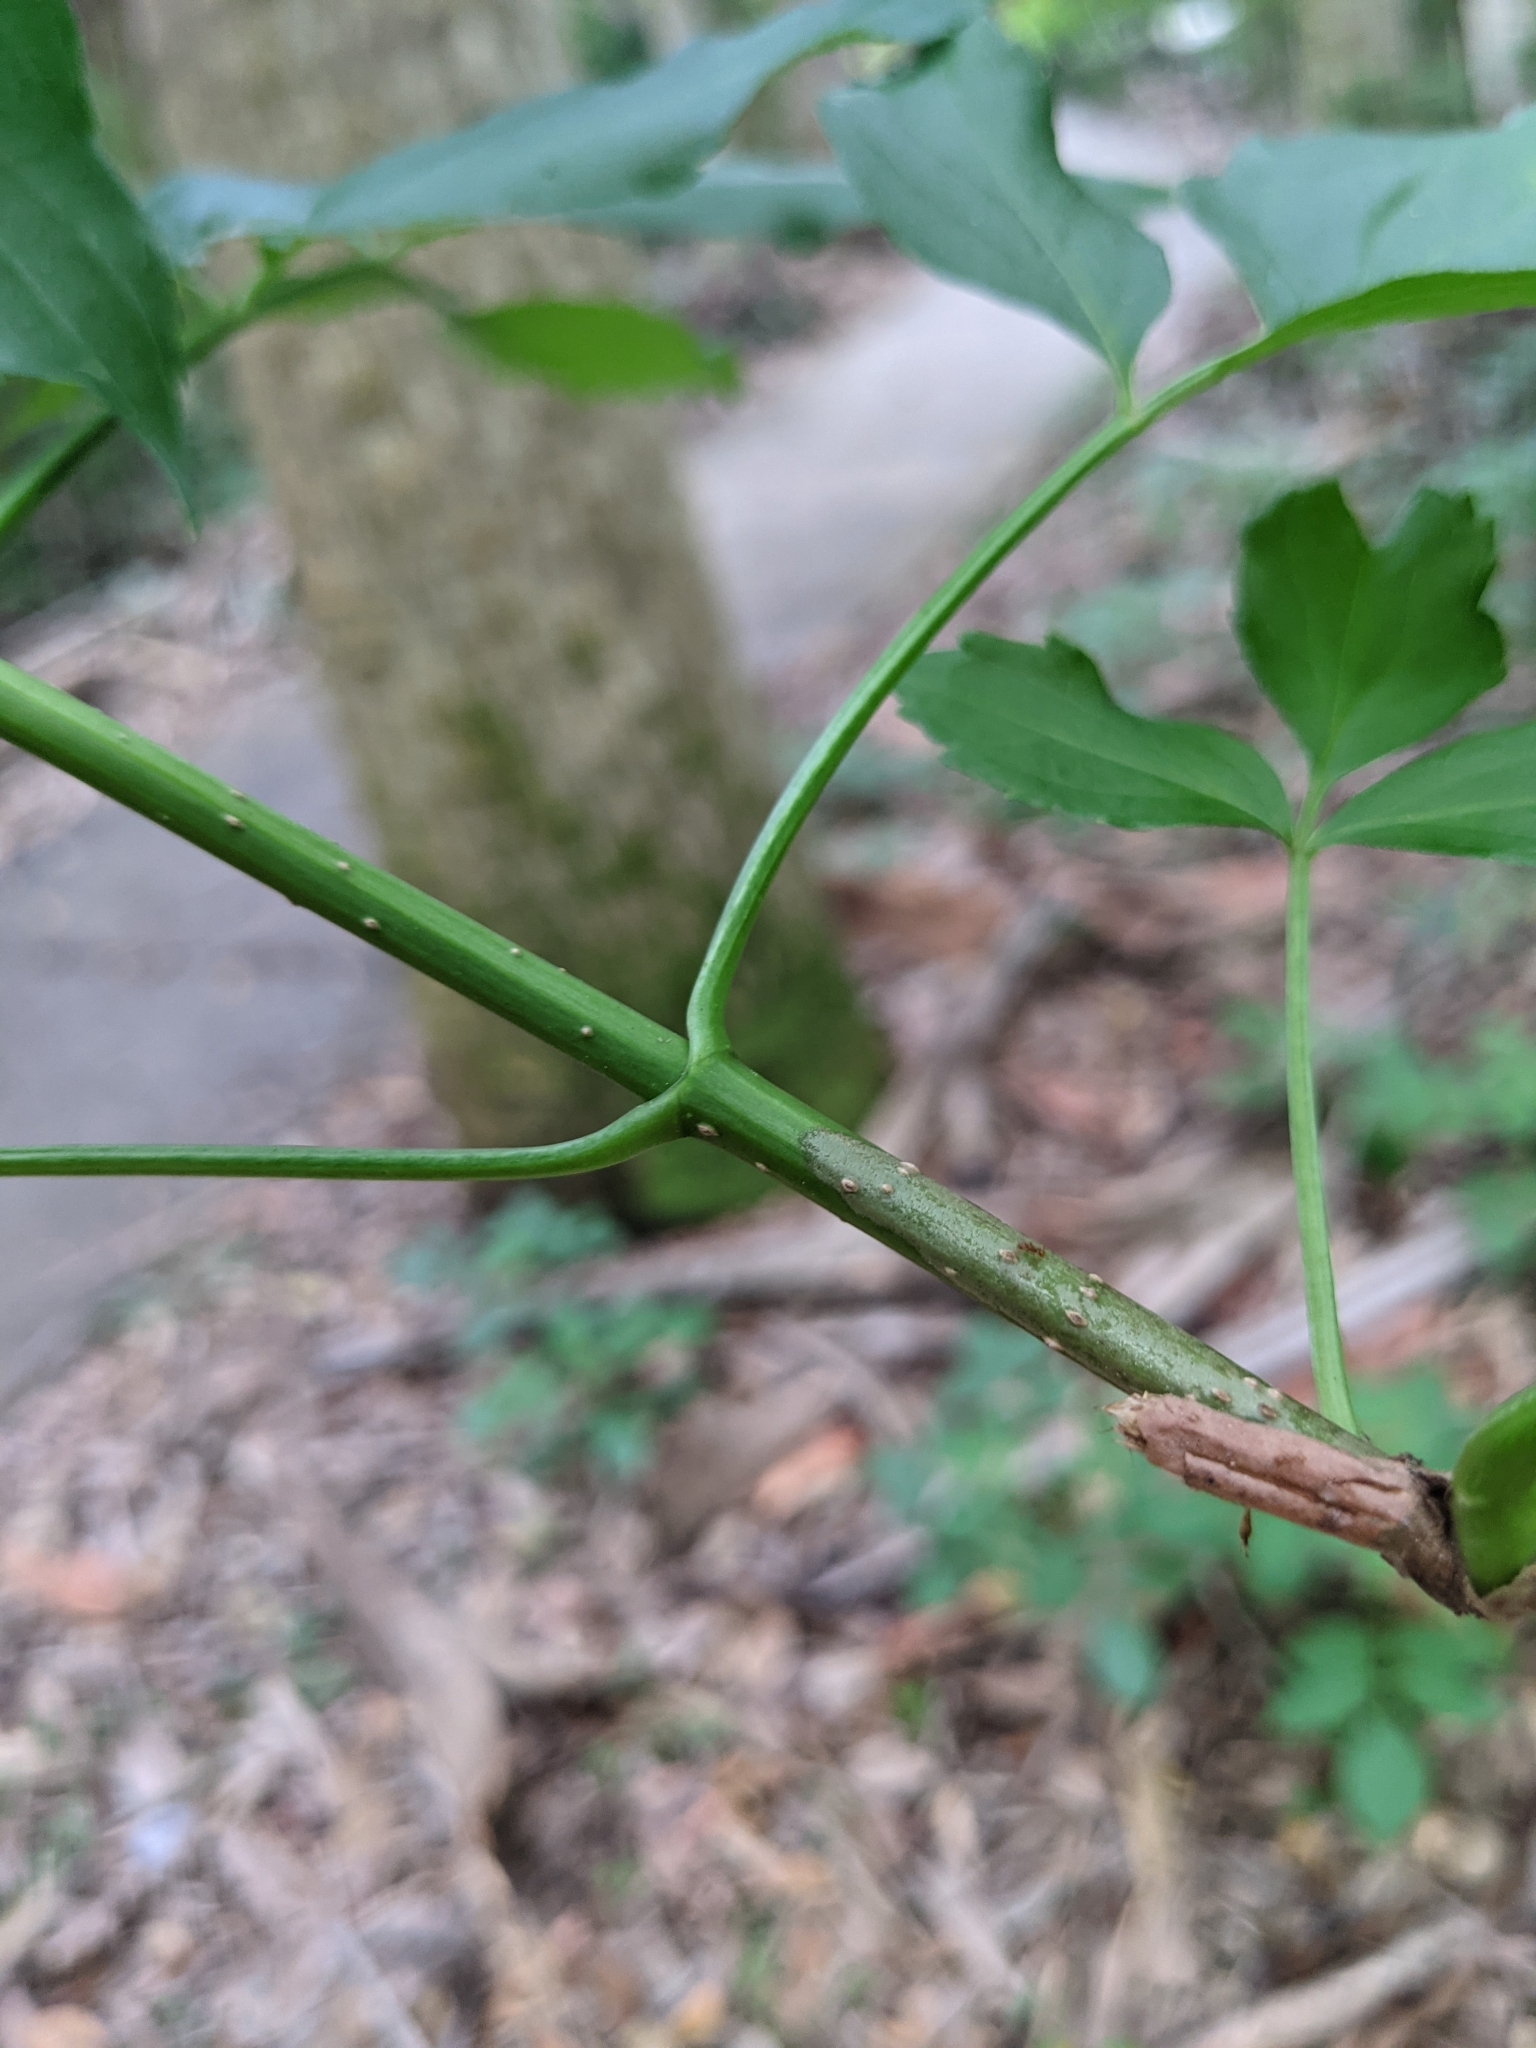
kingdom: Plantae
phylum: Tracheophyta
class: Magnoliopsida
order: Dipsacales
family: Viburnaceae
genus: Sambucus
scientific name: Sambucus canadensis
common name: American elder
